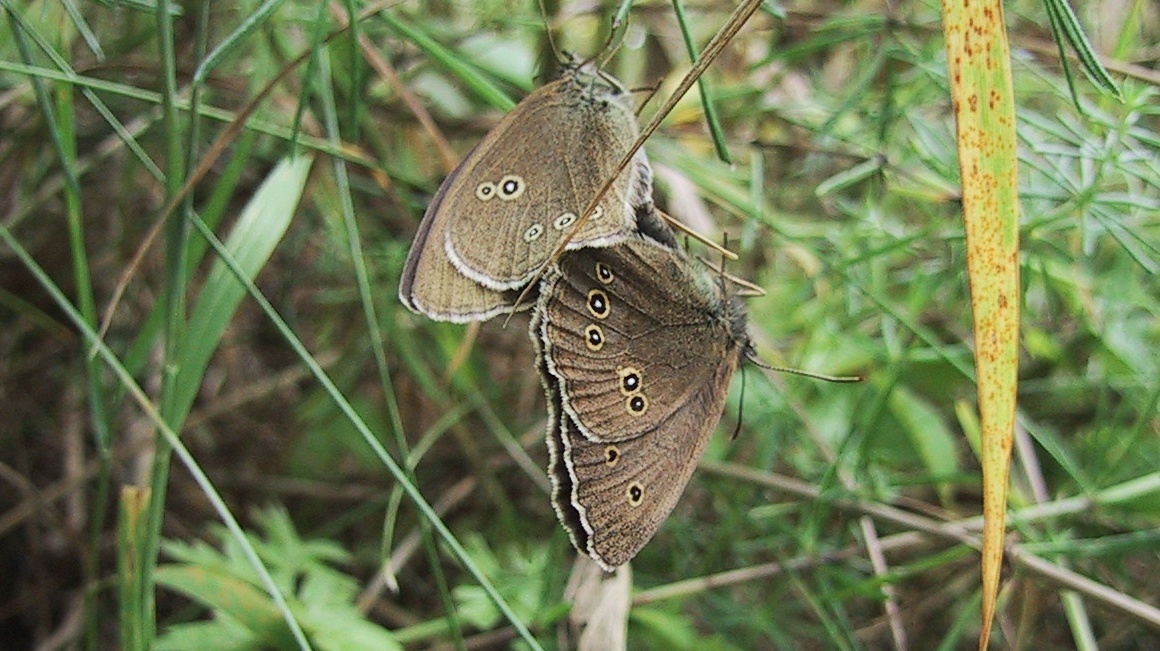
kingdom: Animalia
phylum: Arthropoda
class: Insecta
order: Lepidoptera
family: Nymphalidae
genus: Aphantopus
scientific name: Aphantopus hyperantus
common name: Ringlet
